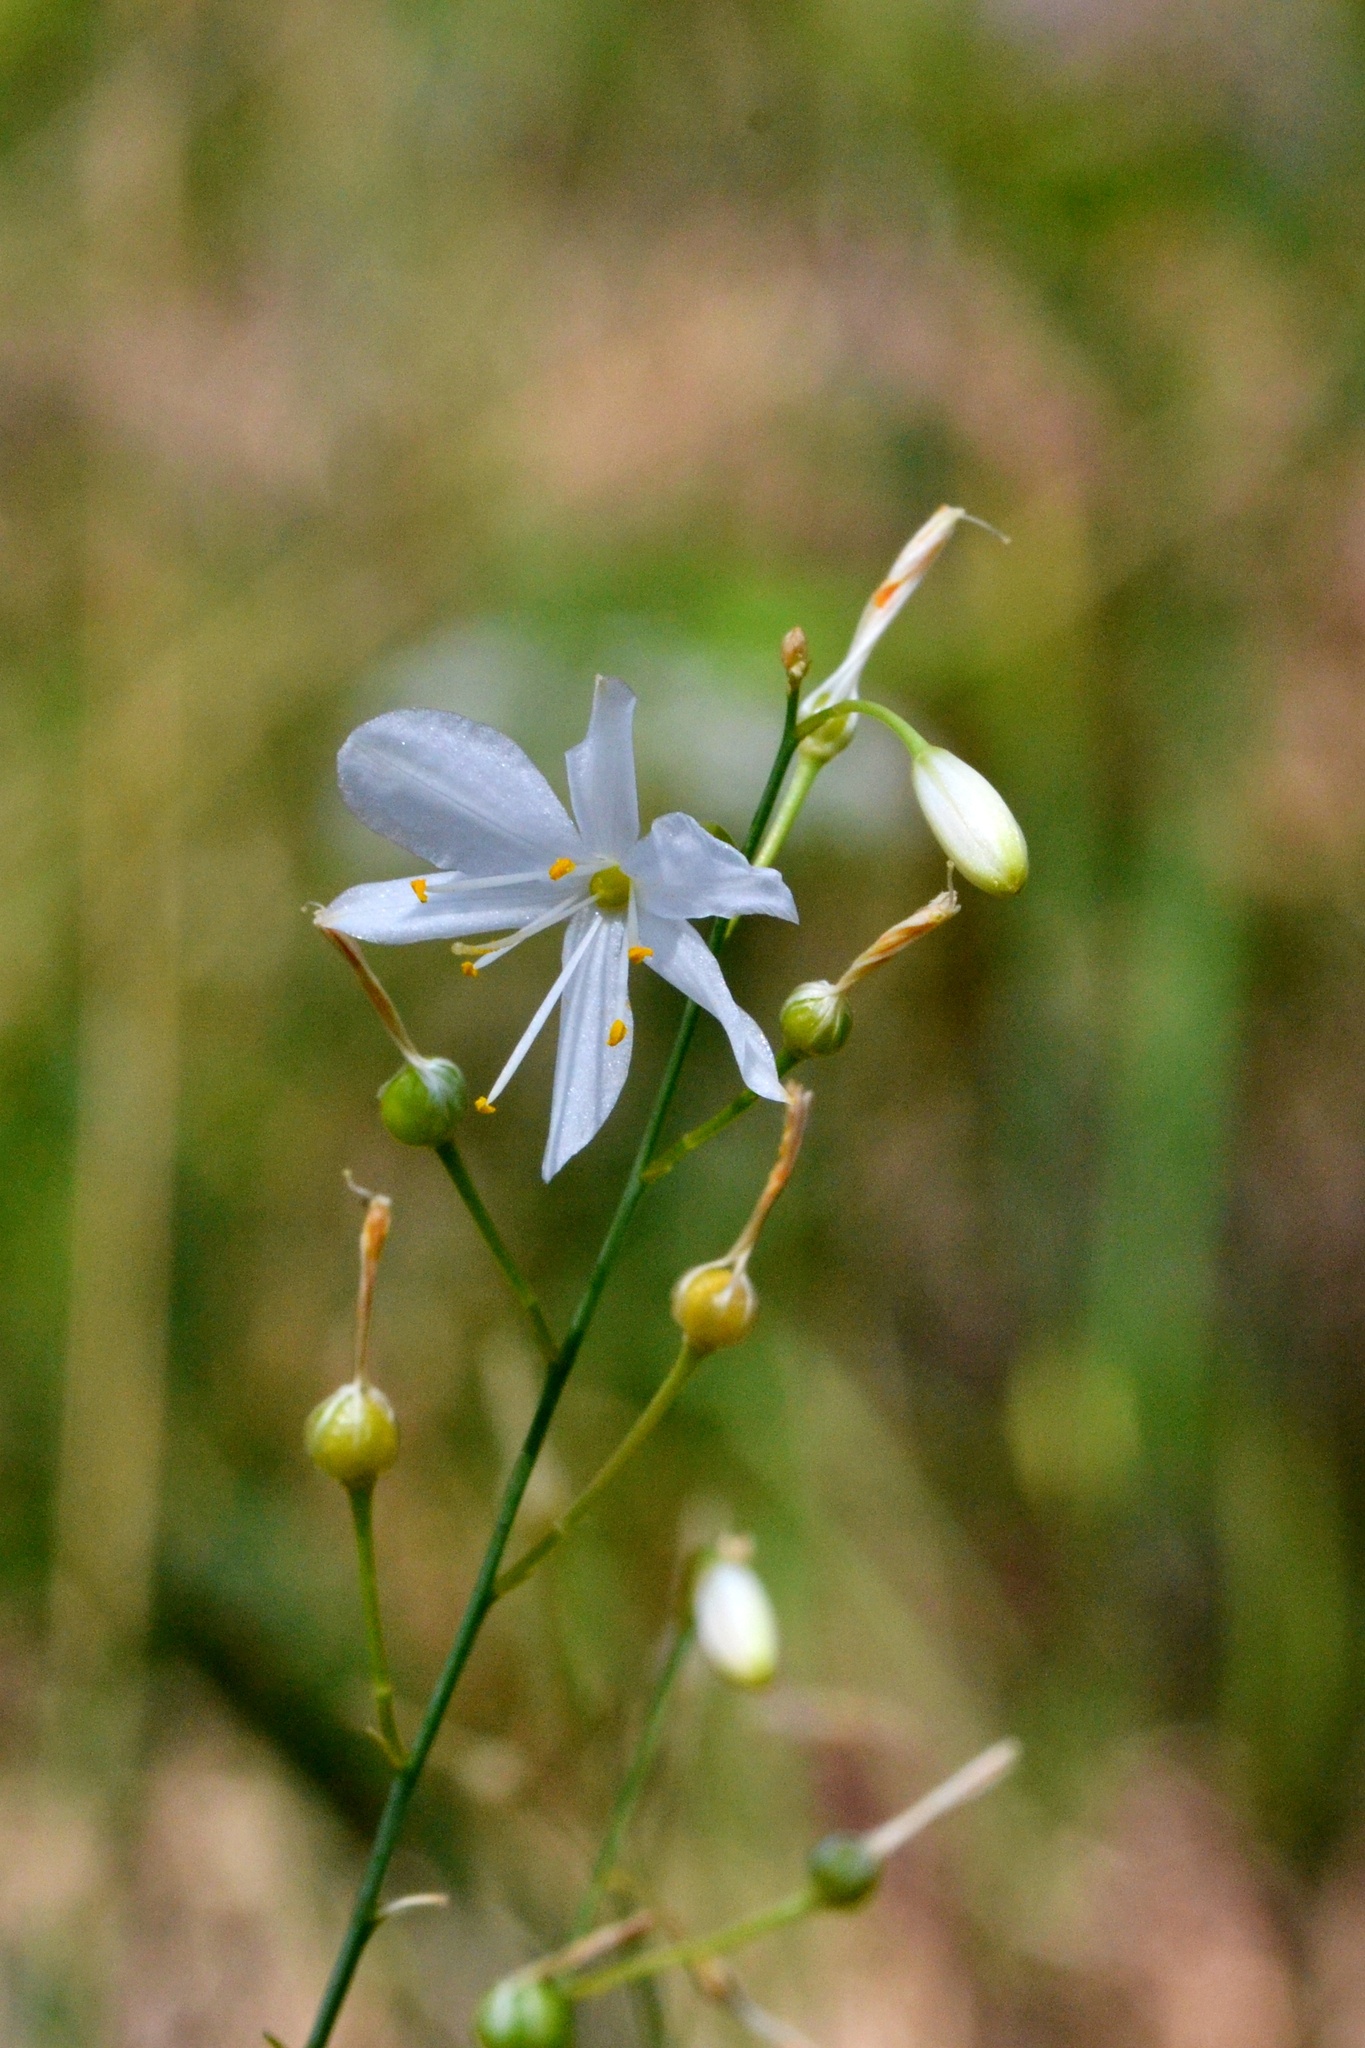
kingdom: Plantae
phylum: Tracheophyta
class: Liliopsida
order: Asparagales
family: Asparagaceae
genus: Anthericum
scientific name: Anthericum ramosum
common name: Branched st. bernard's-lily
